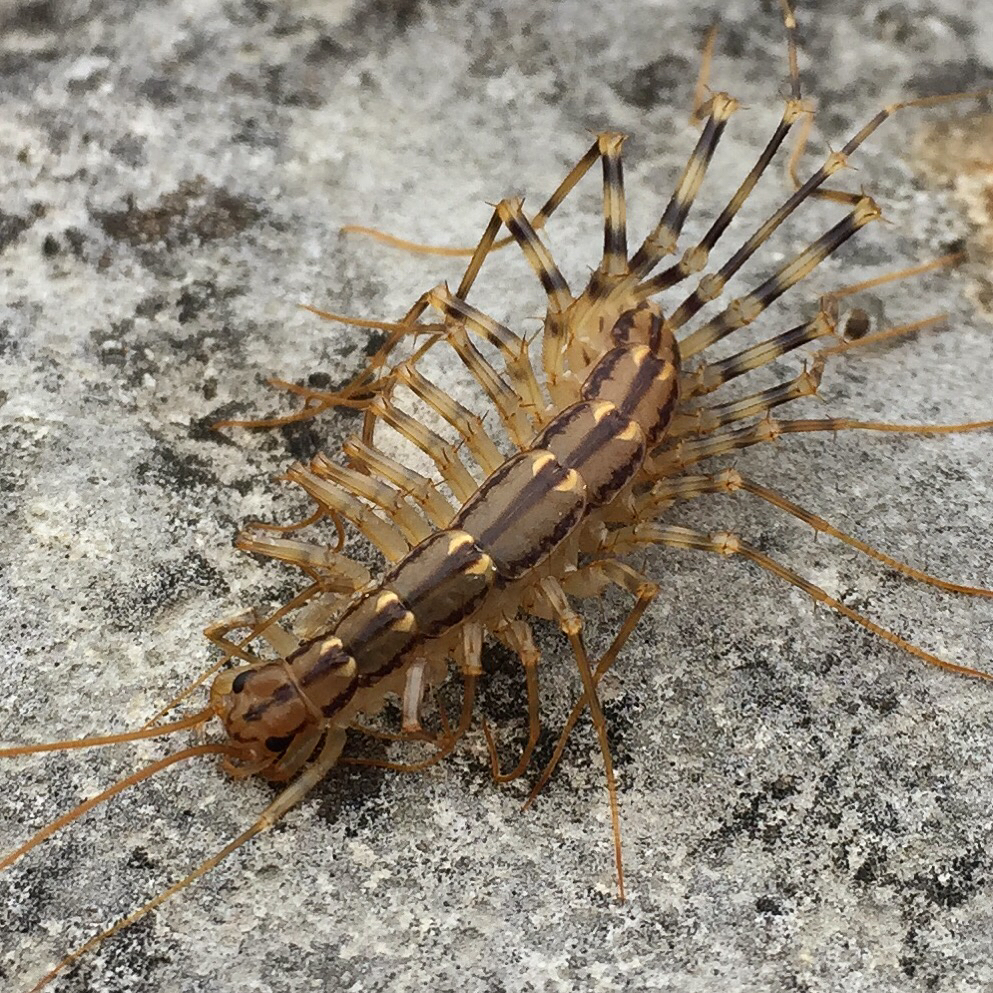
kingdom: Animalia
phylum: Arthropoda
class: Chilopoda
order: Scutigeromorpha
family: Scutigeridae
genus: Scutigera
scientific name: Scutigera coleoptrata
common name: House centipede
